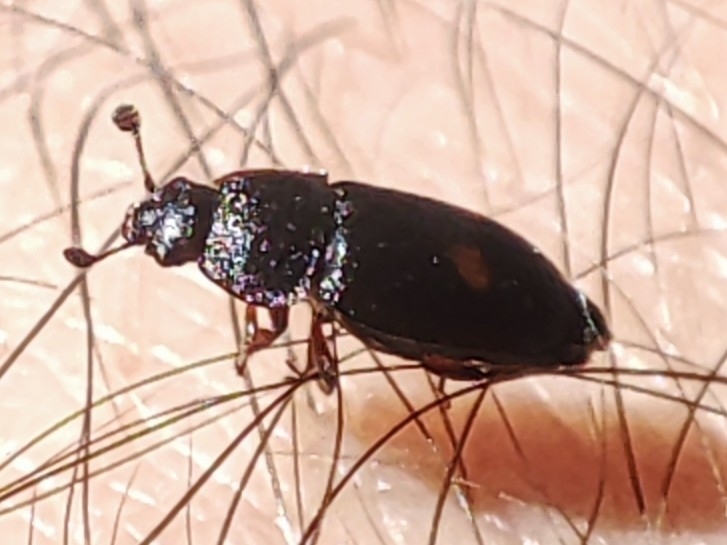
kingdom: Animalia
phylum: Arthropoda
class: Insecta
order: Coleoptera
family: Nitidulidae
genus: Nitidula
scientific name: Nitidula bipunctata
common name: Two spotted carrion beetle
